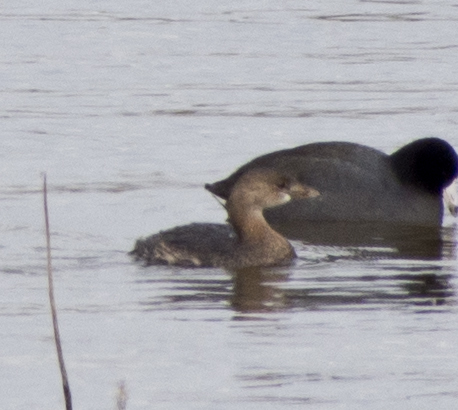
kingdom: Animalia
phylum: Chordata
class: Aves
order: Podicipediformes
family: Podicipedidae
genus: Podilymbus
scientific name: Podilymbus podiceps
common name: Pied-billed grebe
